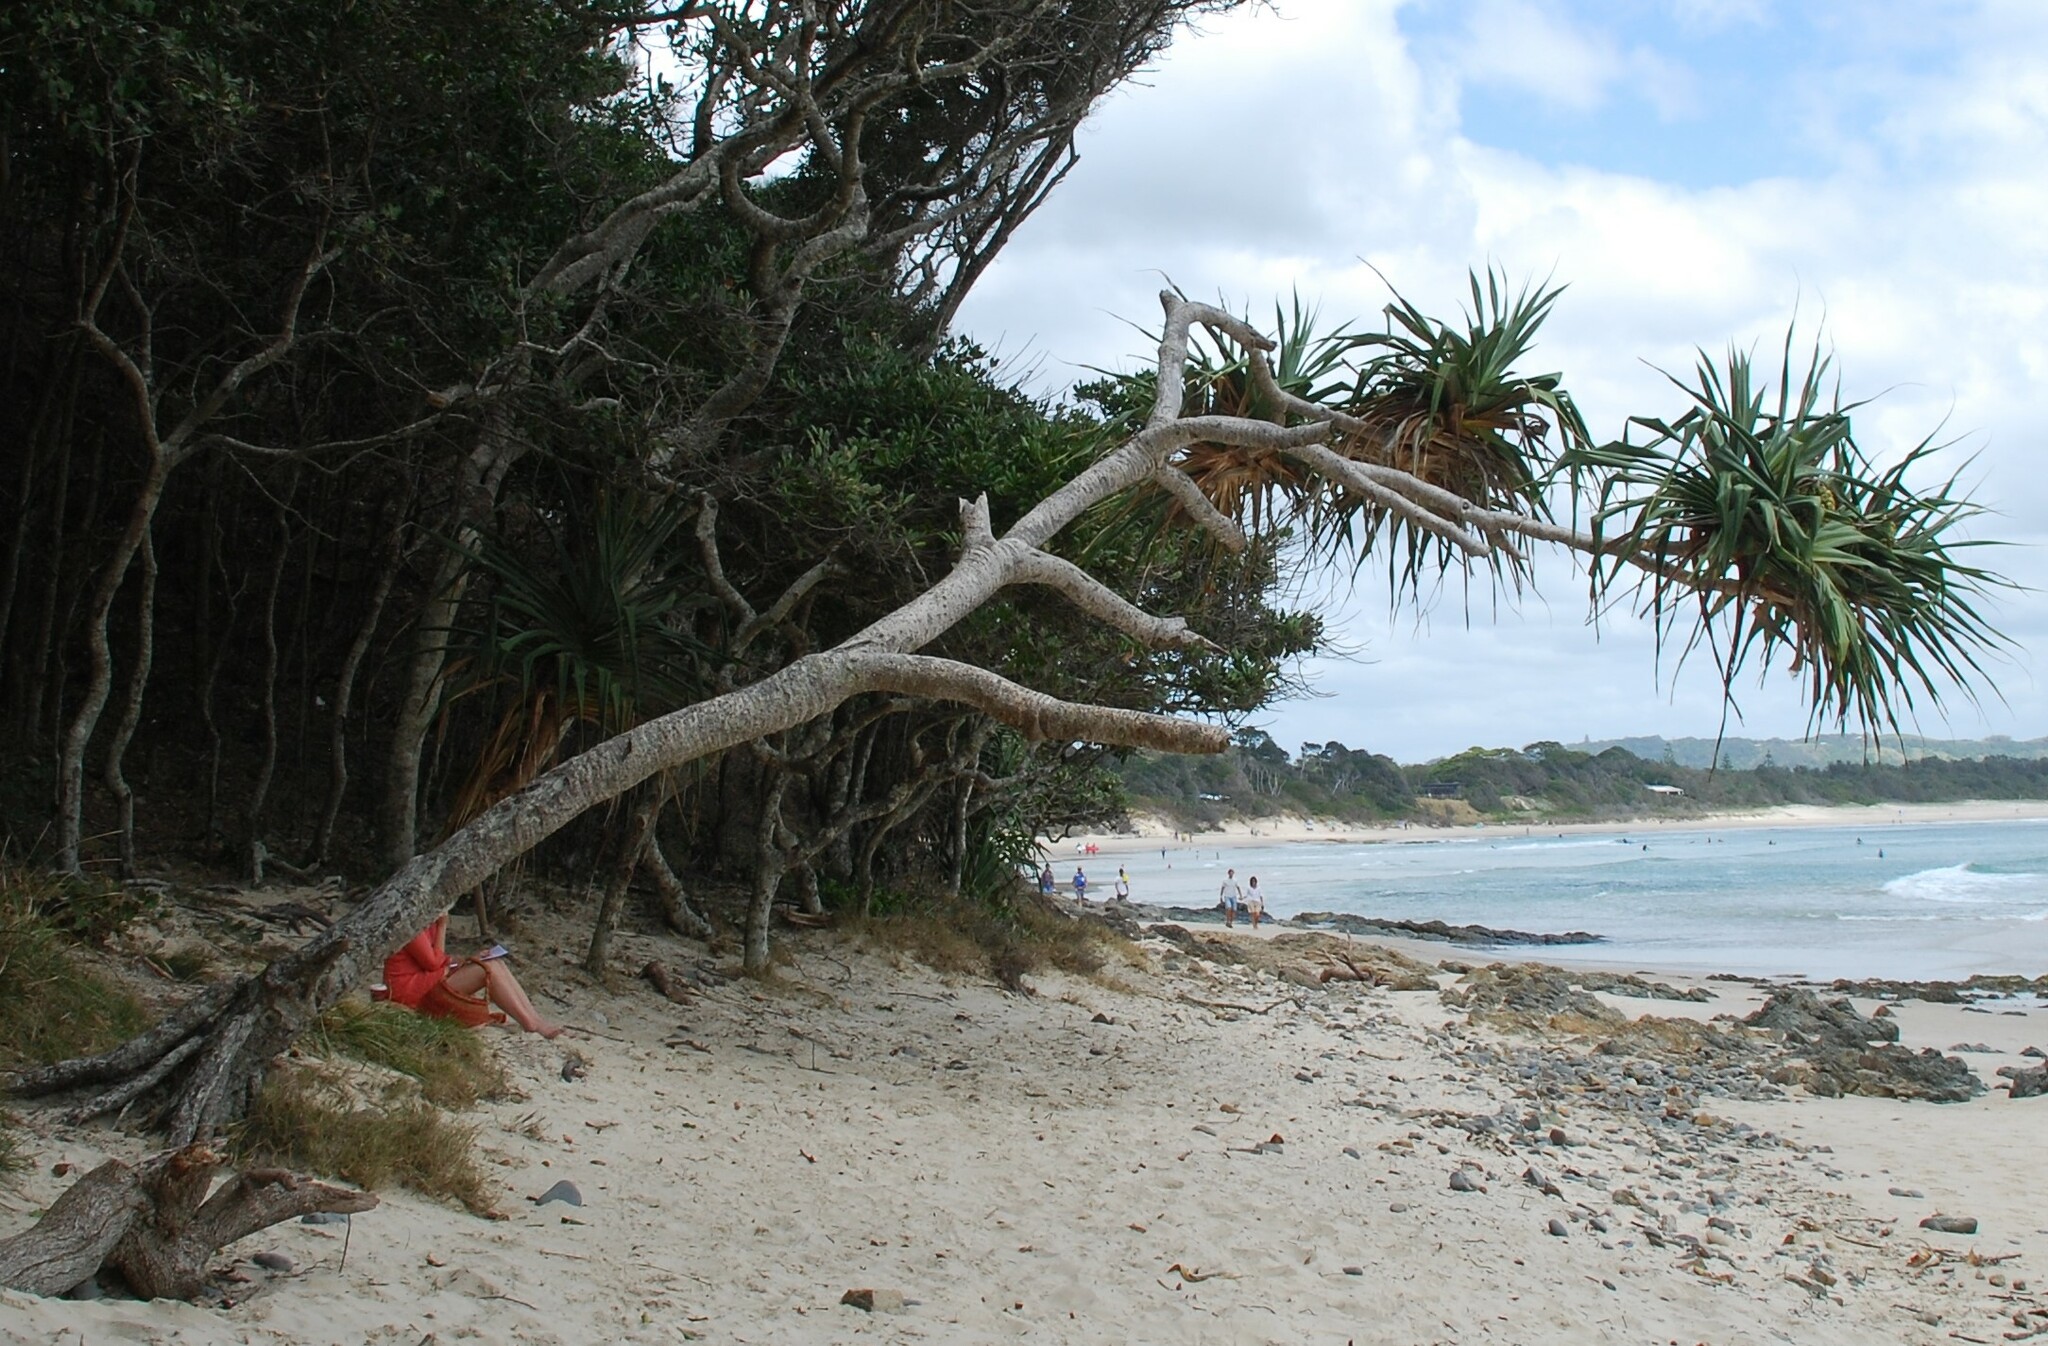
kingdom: Plantae
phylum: Tracheophyta
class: Liliopsida
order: Pandanales
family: Pandanaceae
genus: Pandanus
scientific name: Pandanus tectorius
